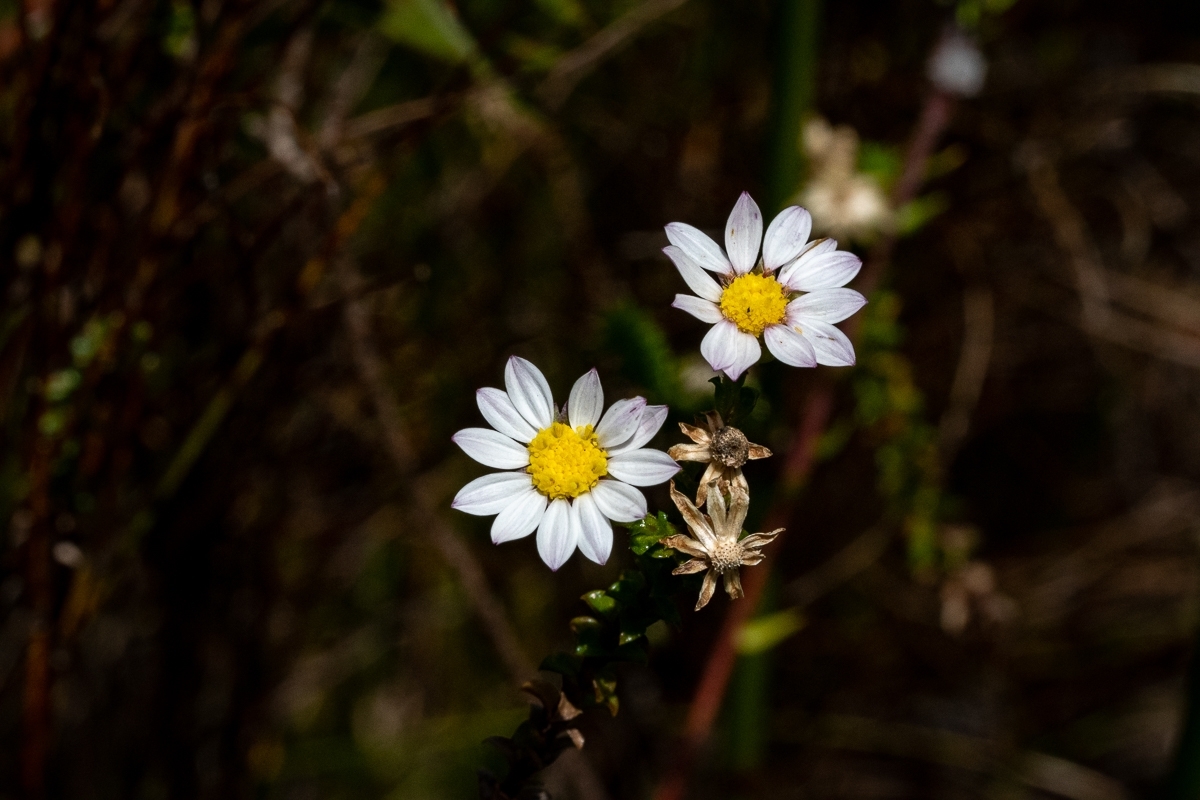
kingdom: Plantae
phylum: Tracheophyta
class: Magnoliopsida
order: Asterales
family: Asteraceae
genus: Polyarrhena
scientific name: Polyarrhena reflexa
